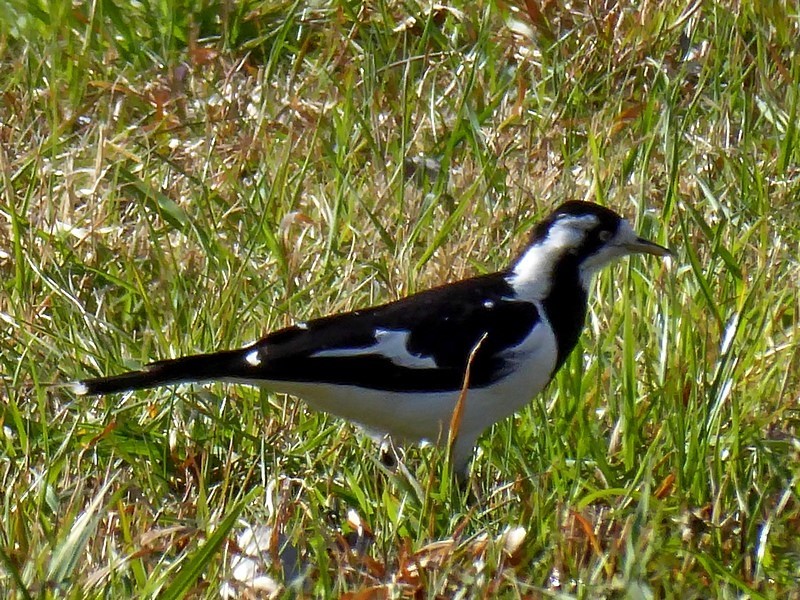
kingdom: Animalia
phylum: Chordata
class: Aves
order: Passeriformes
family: Monarchidae
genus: Grallina
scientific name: Grallina cyanoleuca
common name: Magpie-lark
